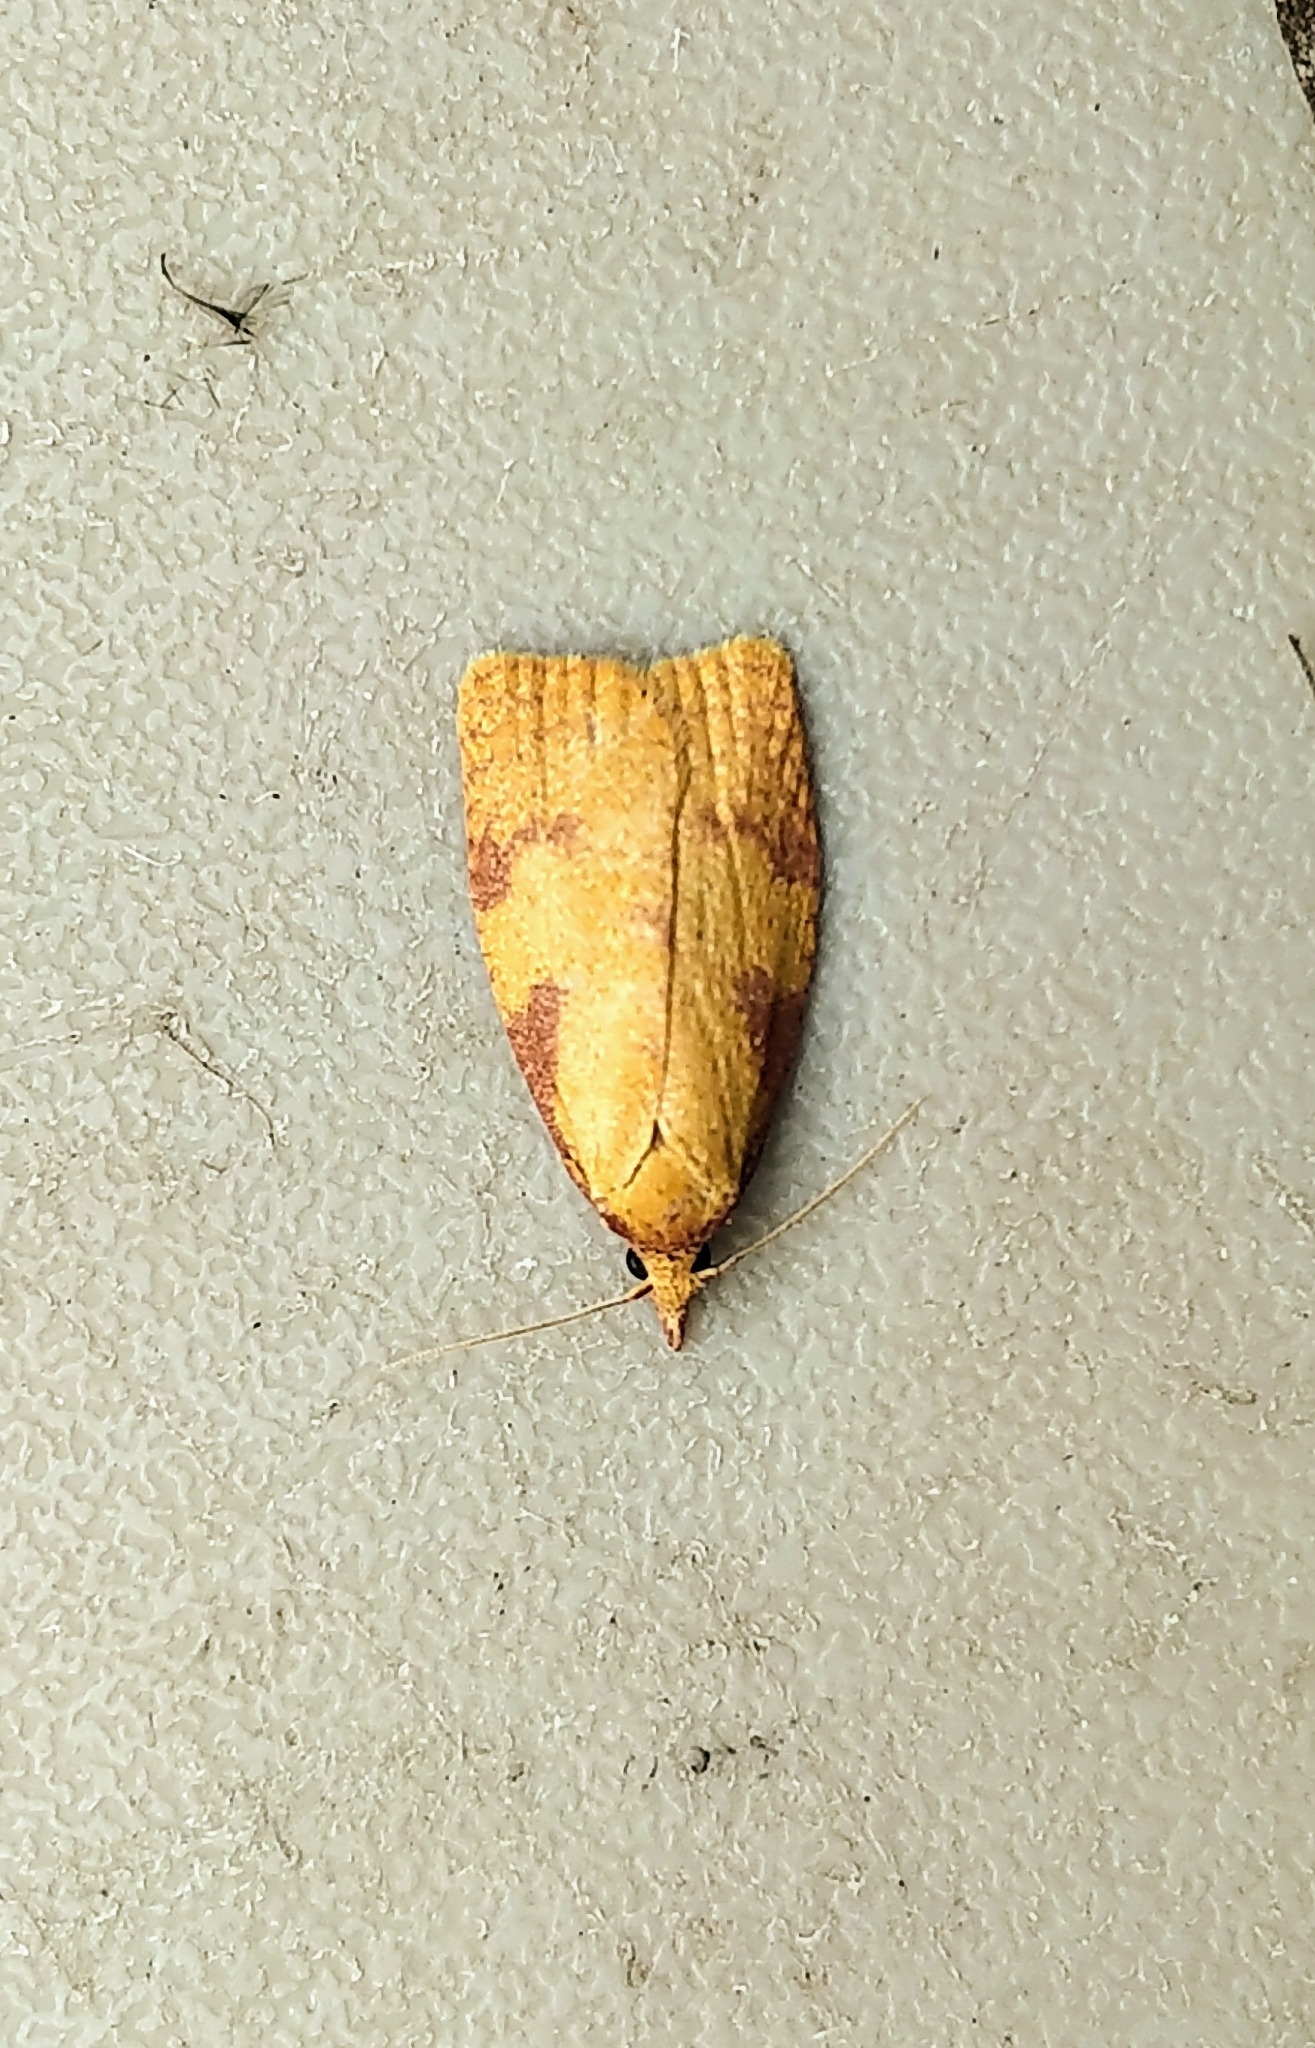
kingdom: Animalia
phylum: Arthropoda
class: Insecta
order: Lepidoptera
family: Tortricidae
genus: Sparganothis
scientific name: Sparganothis unifasciana
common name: One-lined sparganothis moth
